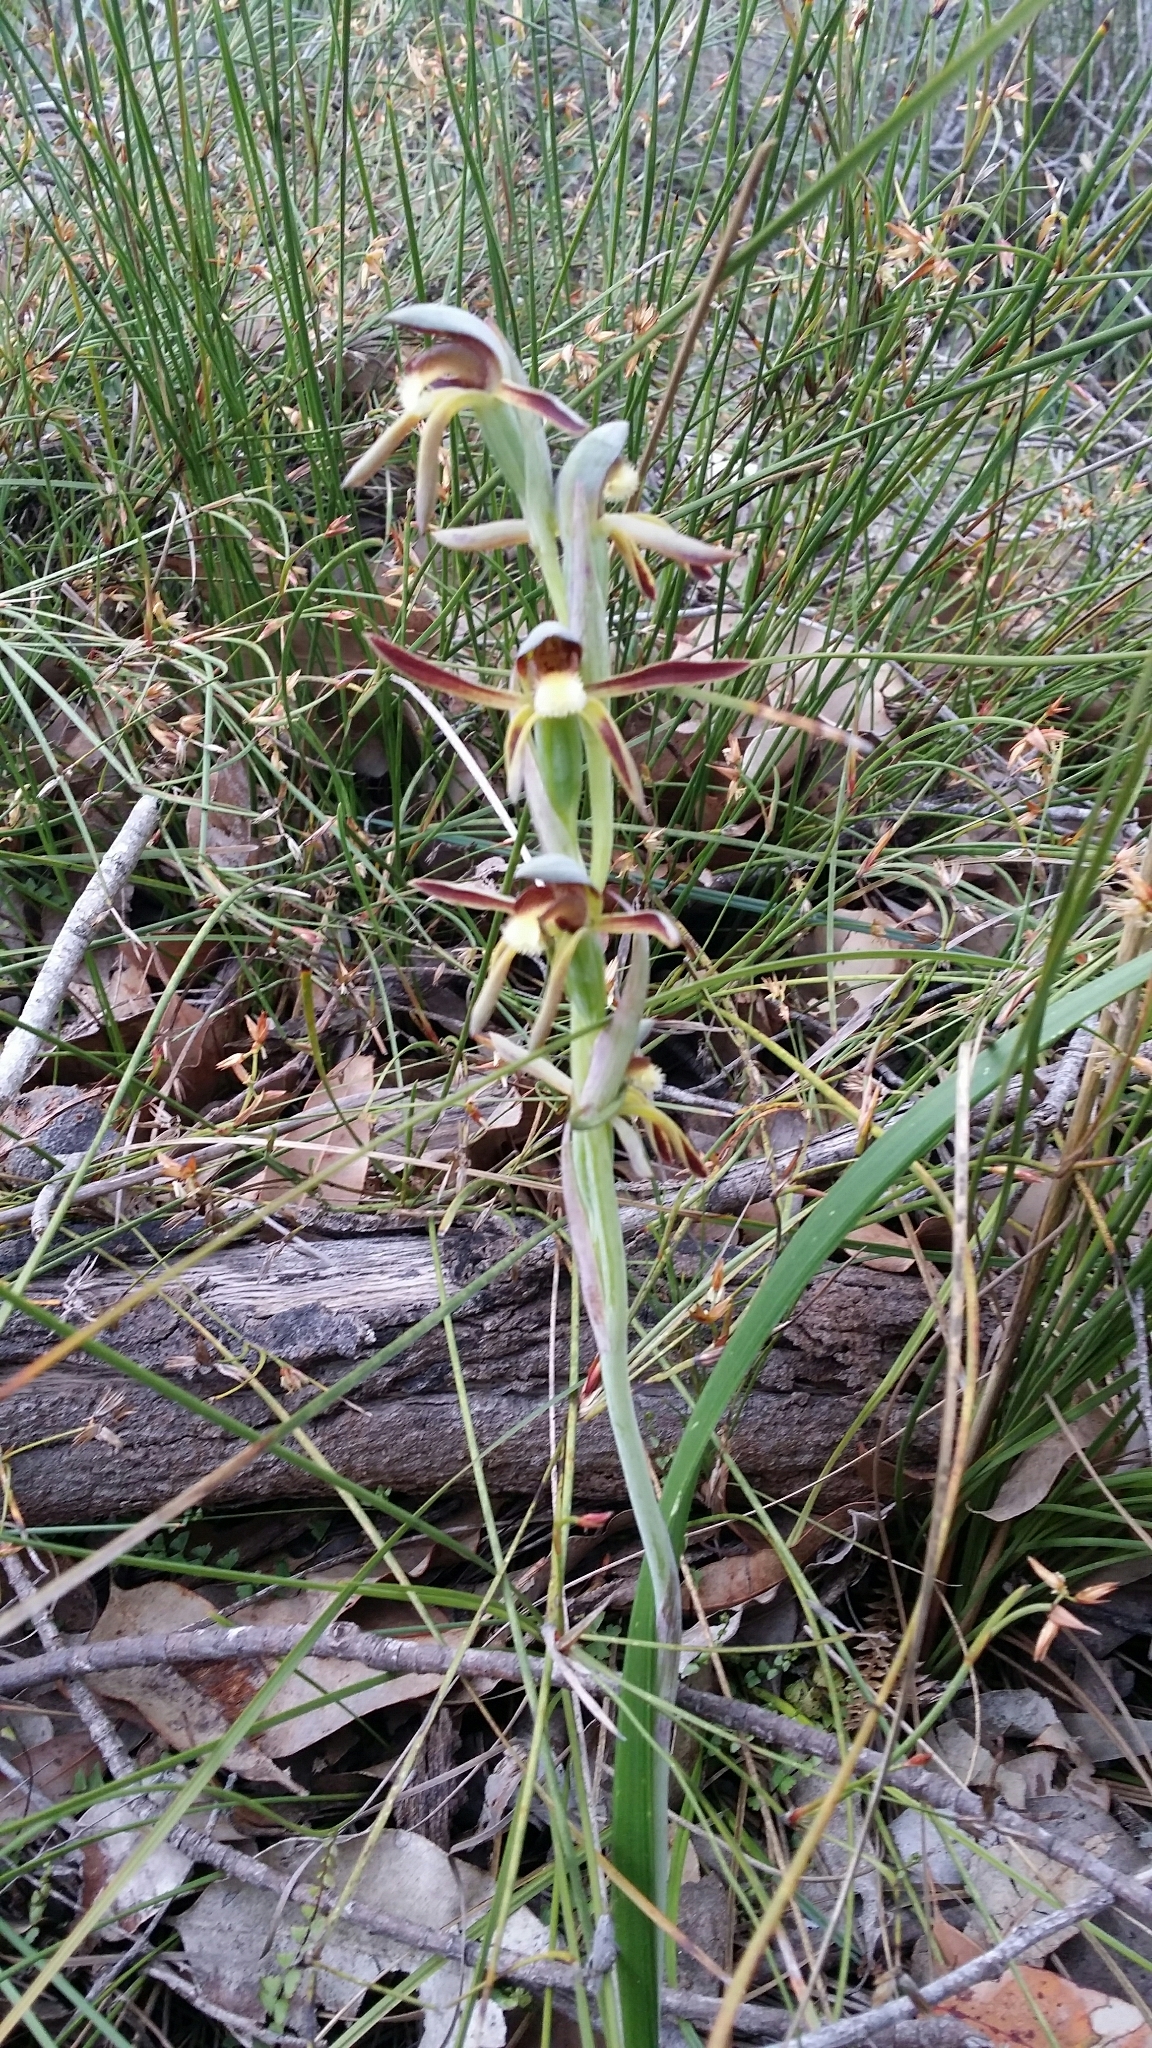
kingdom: Plantae
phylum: Tracheophyta
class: Liliopsida
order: Asparagales
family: Orchidaceae
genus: Lyperanthus
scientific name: Lyperanthus serratus
